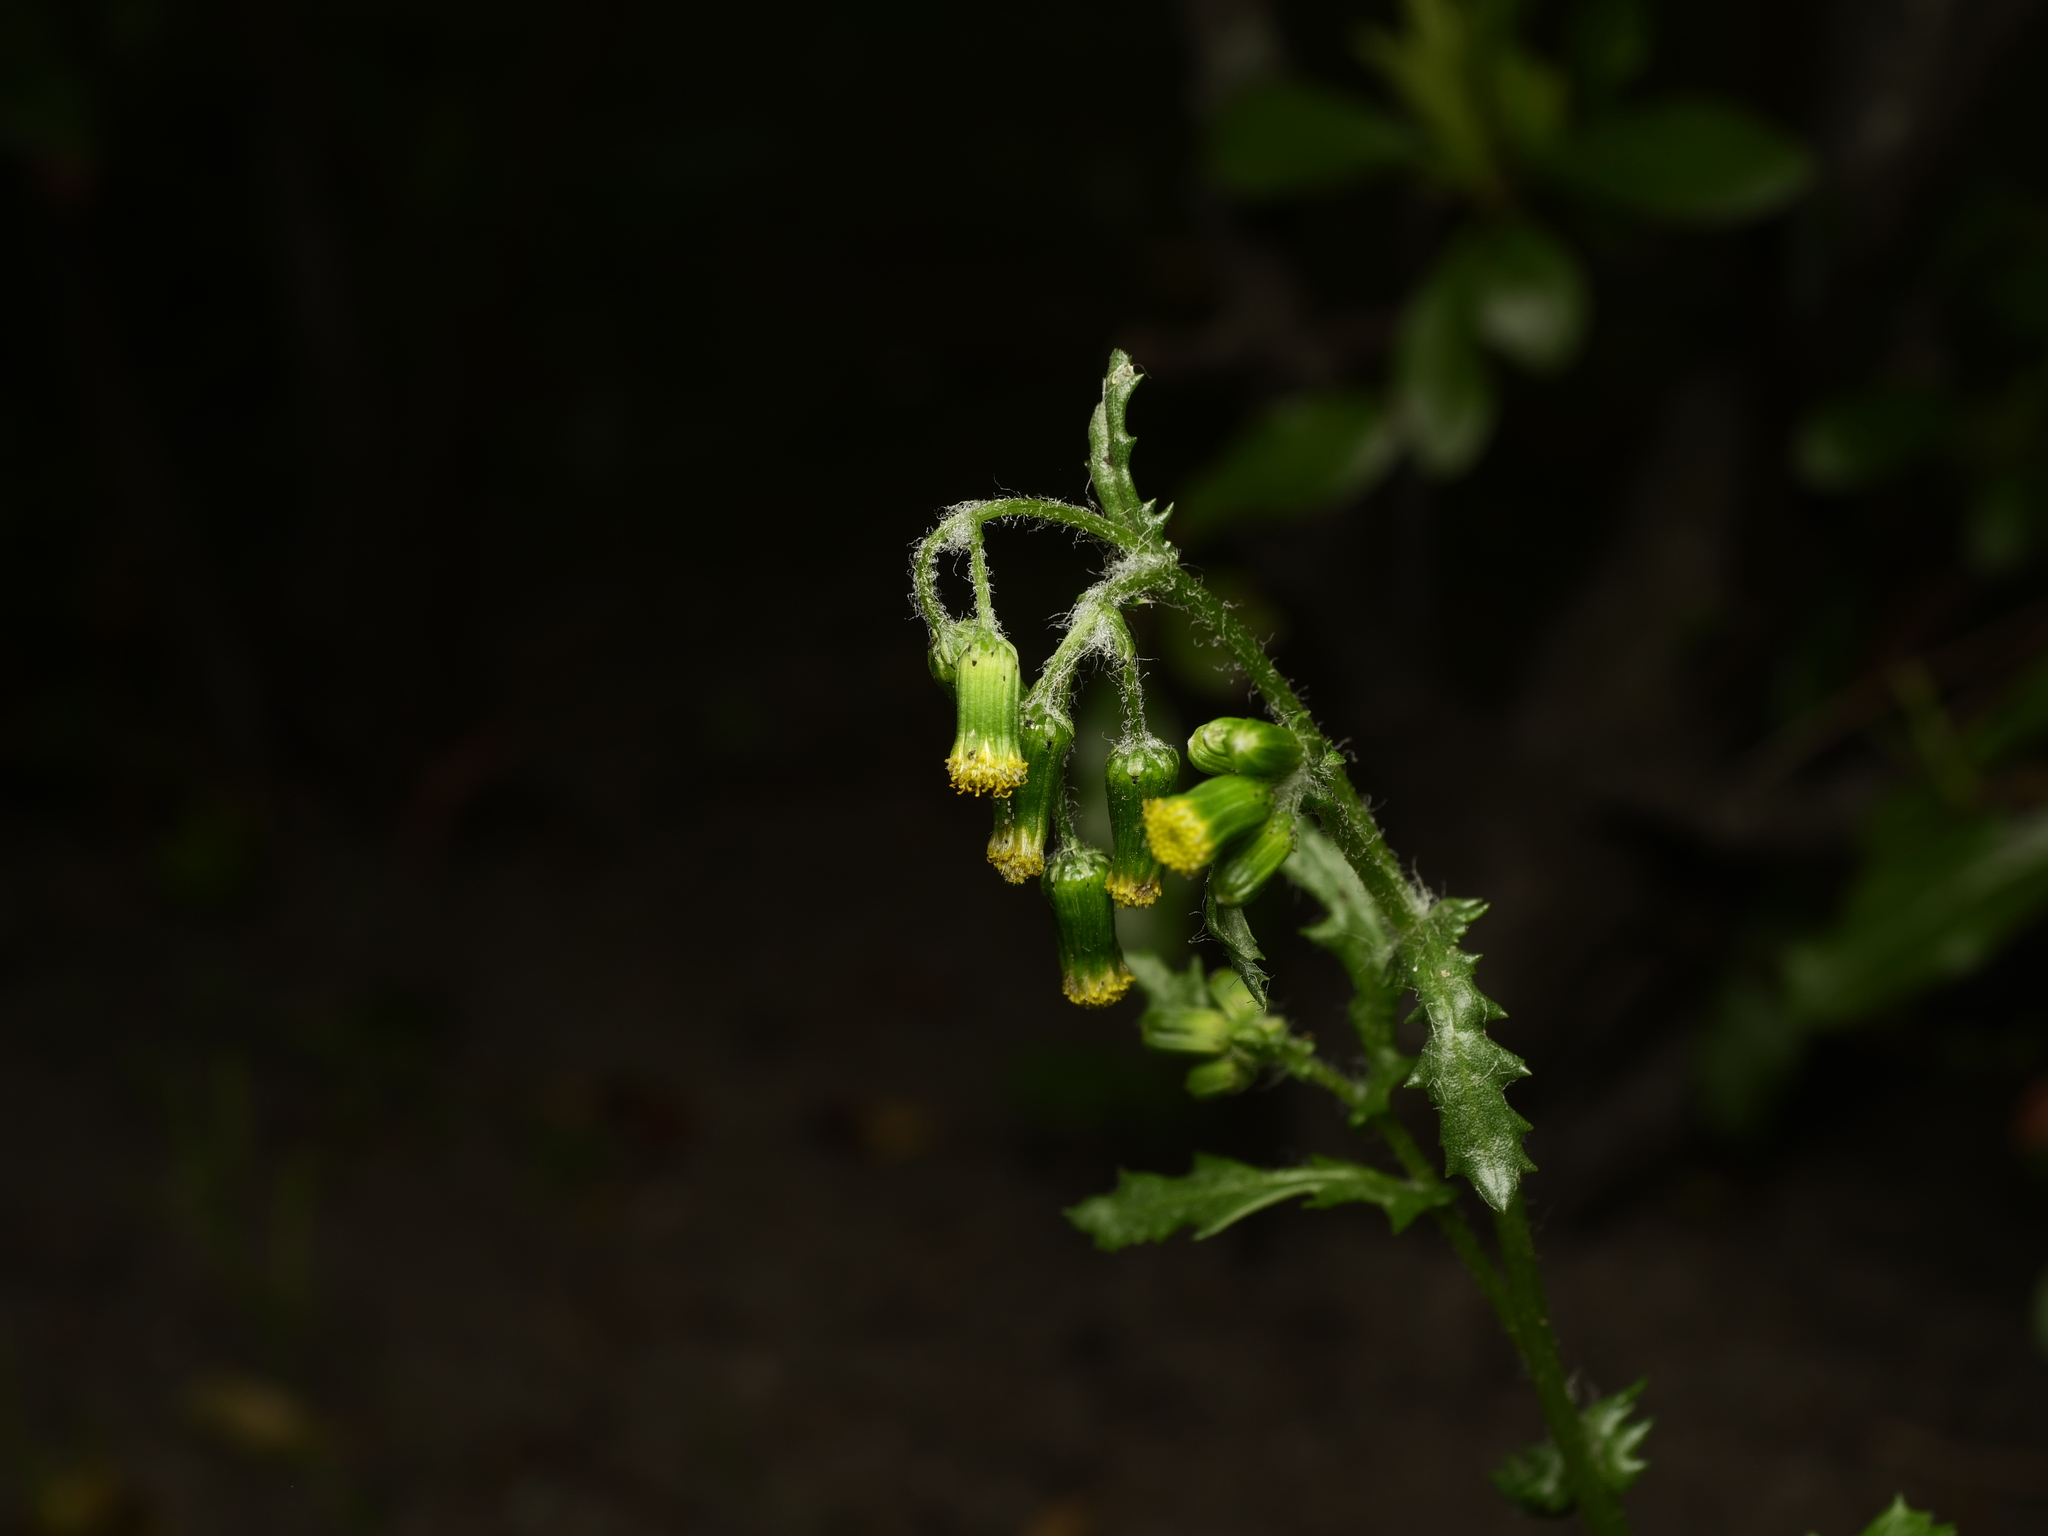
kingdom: Plantae
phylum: Tracheophyta
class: Magnoliopsida
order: Asterales
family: Asteraceae
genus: Senecio
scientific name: Senecio vulgaris
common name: Old-man-in-the-spring
